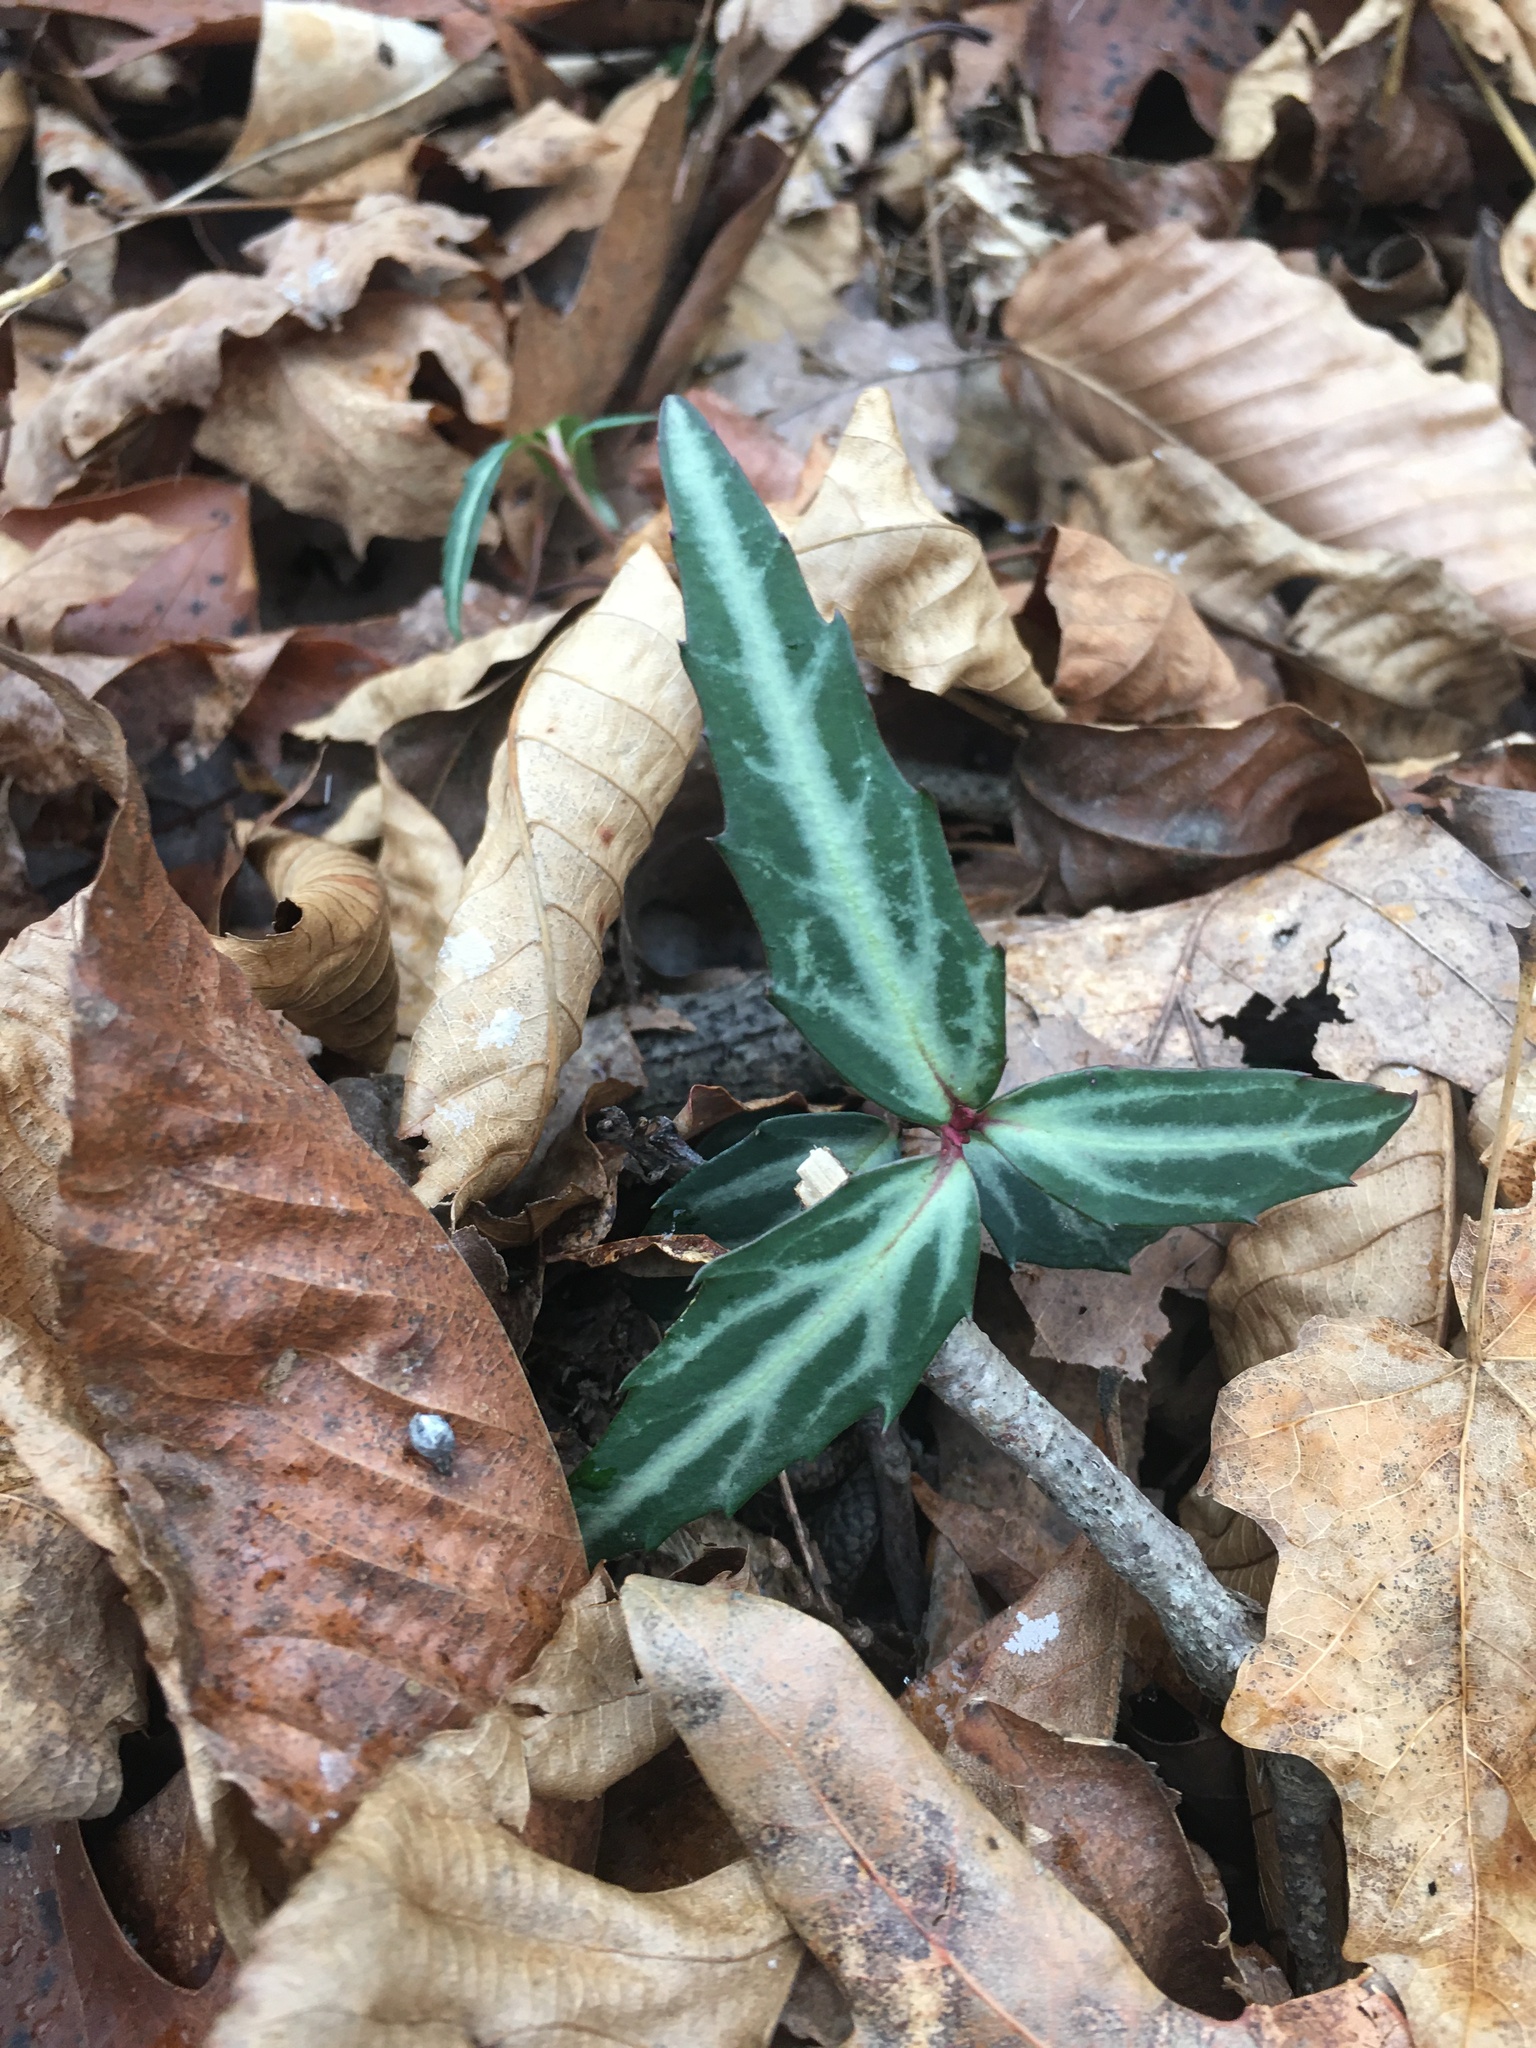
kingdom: Plantae
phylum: Tracheophyta
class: Magnoliopsida
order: Ericales
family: Ericaceae
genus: Chimaphila
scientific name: Chimaphila maculata
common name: Spotted pipsissewa
